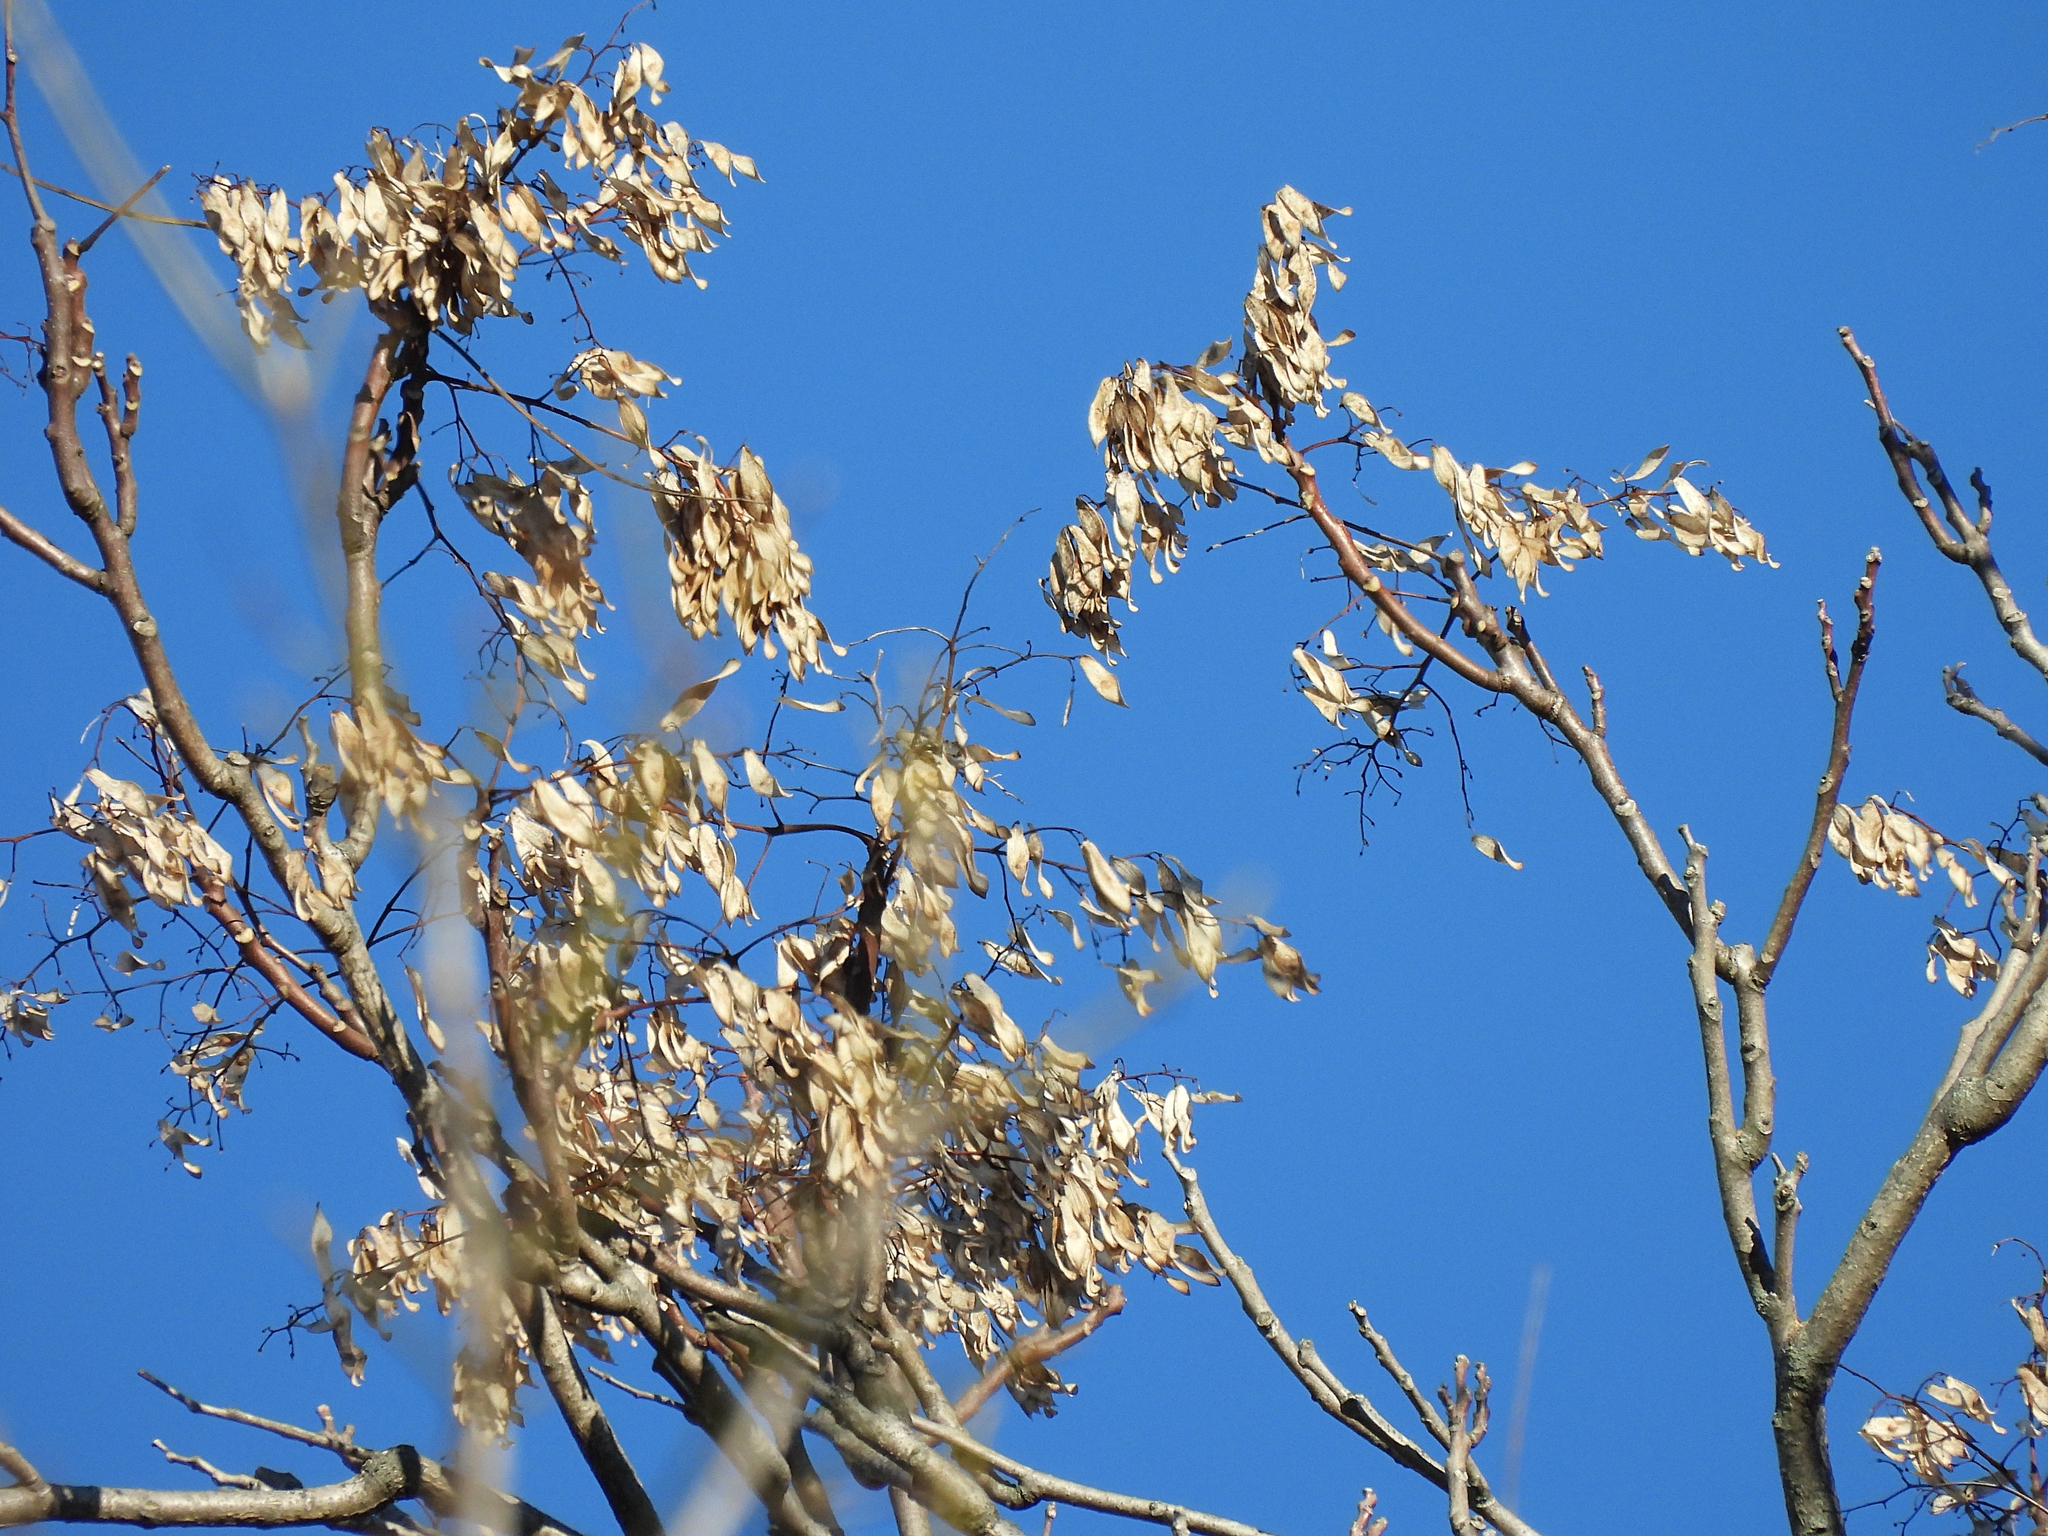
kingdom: Plantae
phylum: Tracheophyta
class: Magnoliopsida
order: Sapindales
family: Simaroubaceae
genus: Ailanthus
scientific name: Ailanthus altissima
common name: Tree-of-heaven
